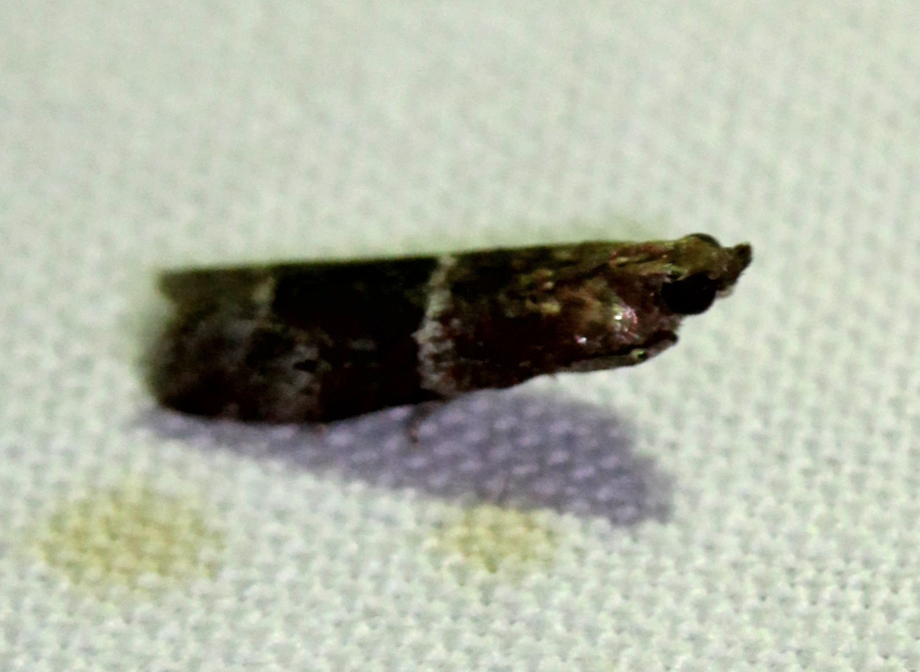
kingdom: Animalia
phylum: Arthropoda
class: Insecta
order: Lepidoptera
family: Pyralidae
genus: Moodna
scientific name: Moodna ostrinella
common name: Darker moodna moth
